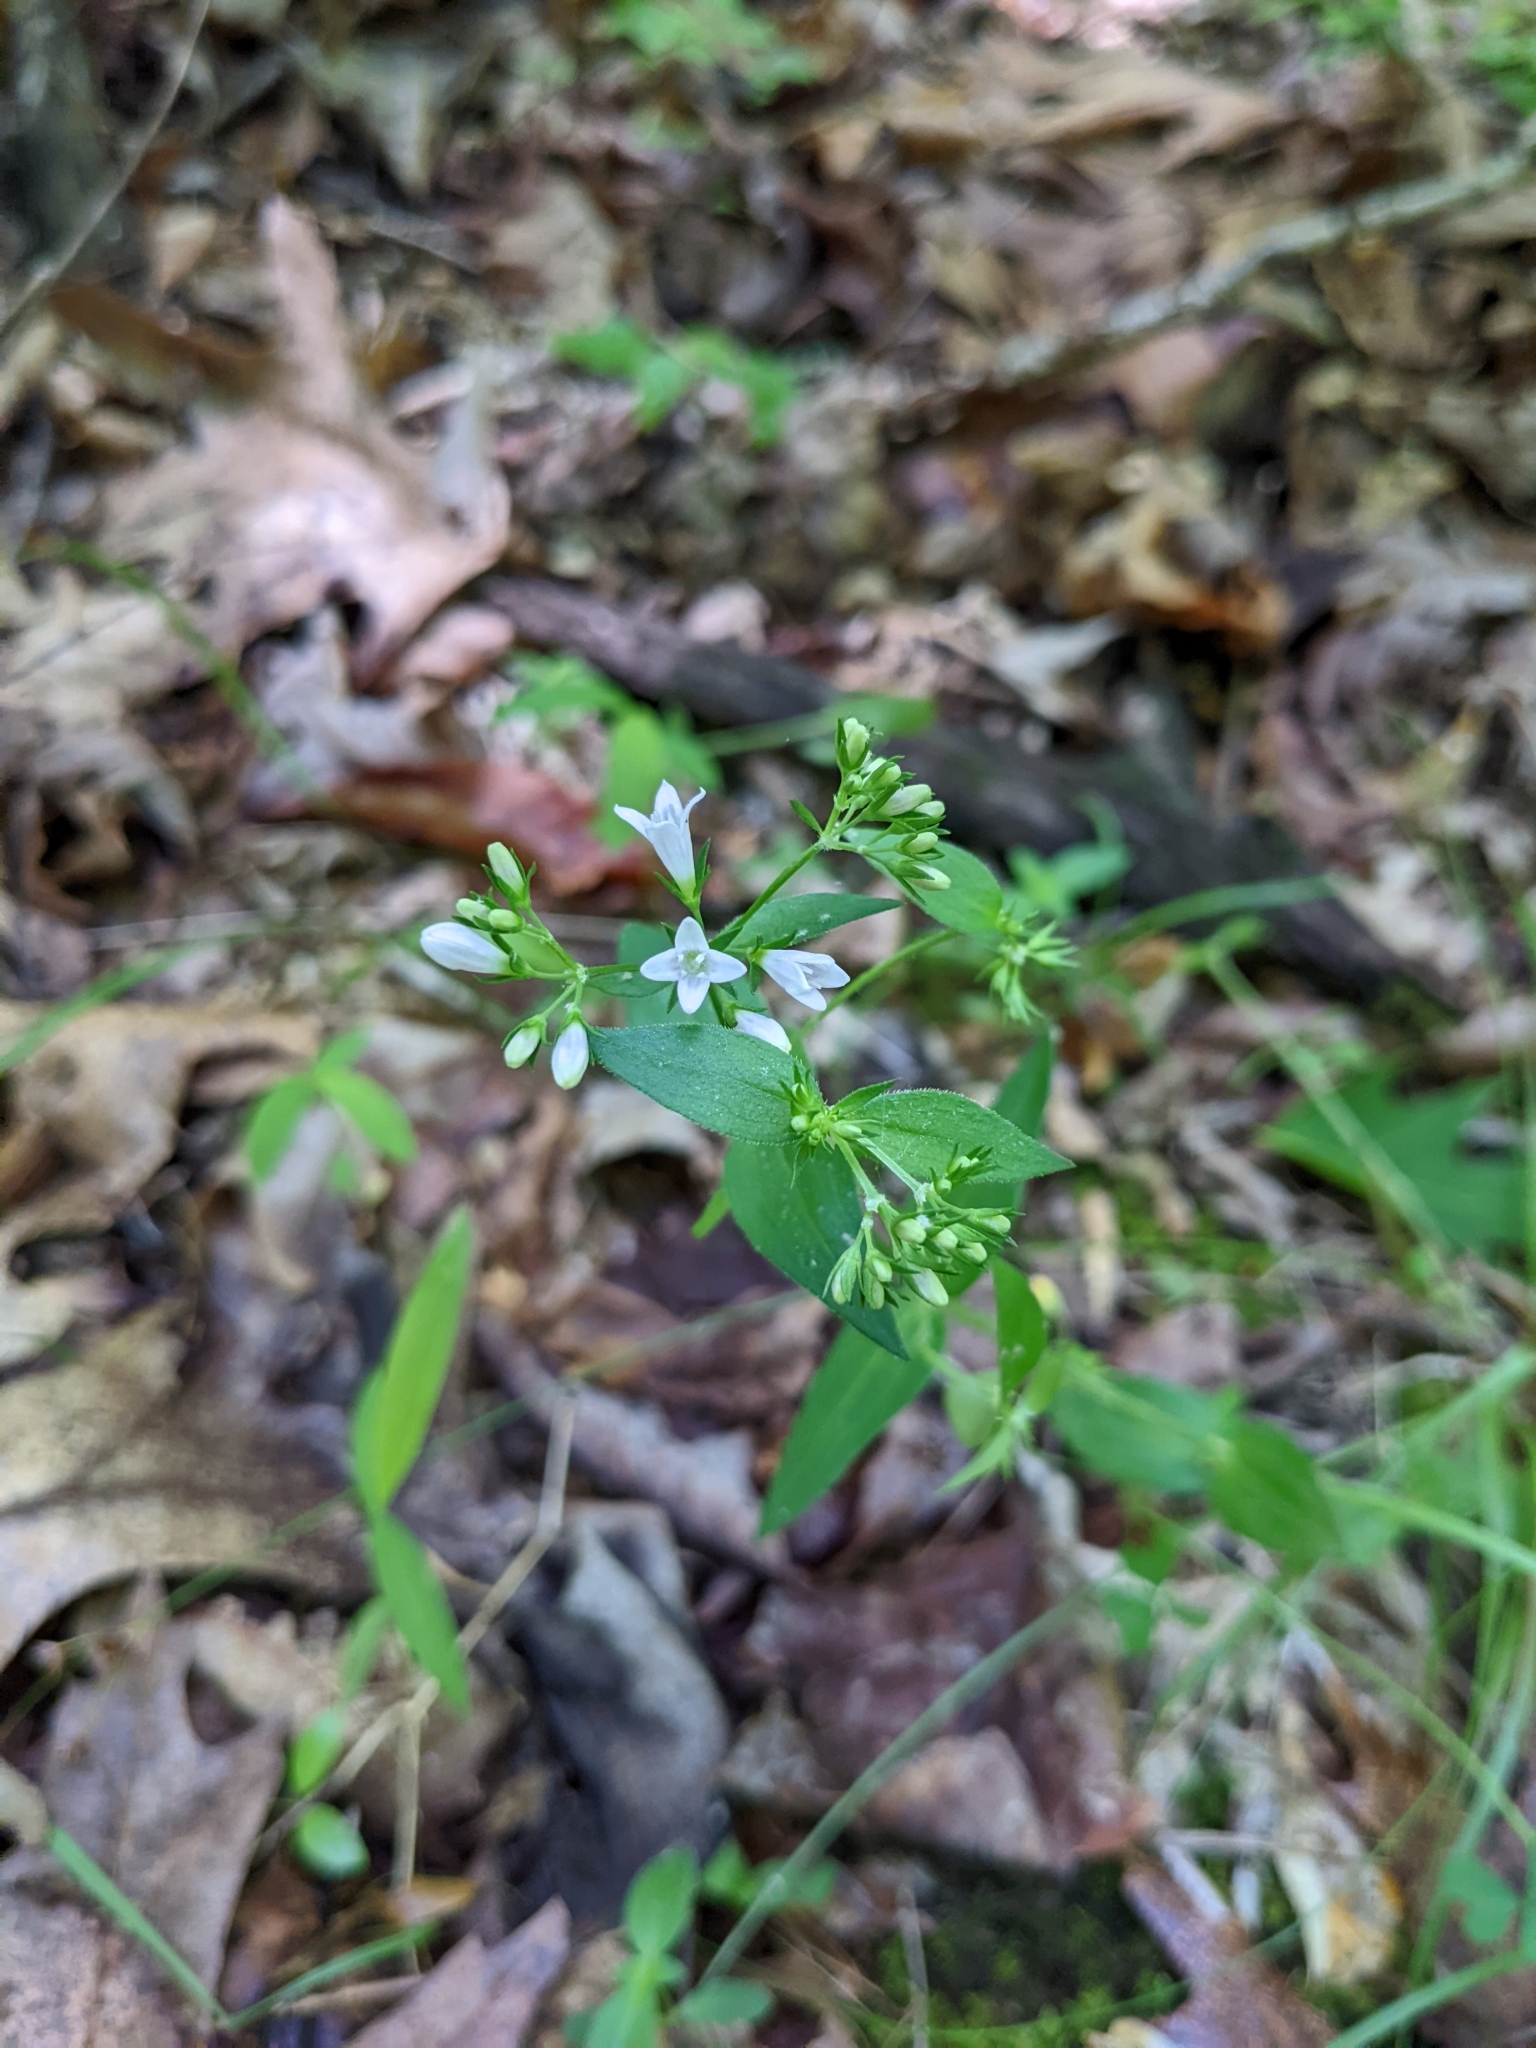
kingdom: Plantae
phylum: Tracheophyta
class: Magnoliopsida
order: Gentianales
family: Rubiaceae
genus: Houstonia
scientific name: Houstonia purpurea
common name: Summer bluet
